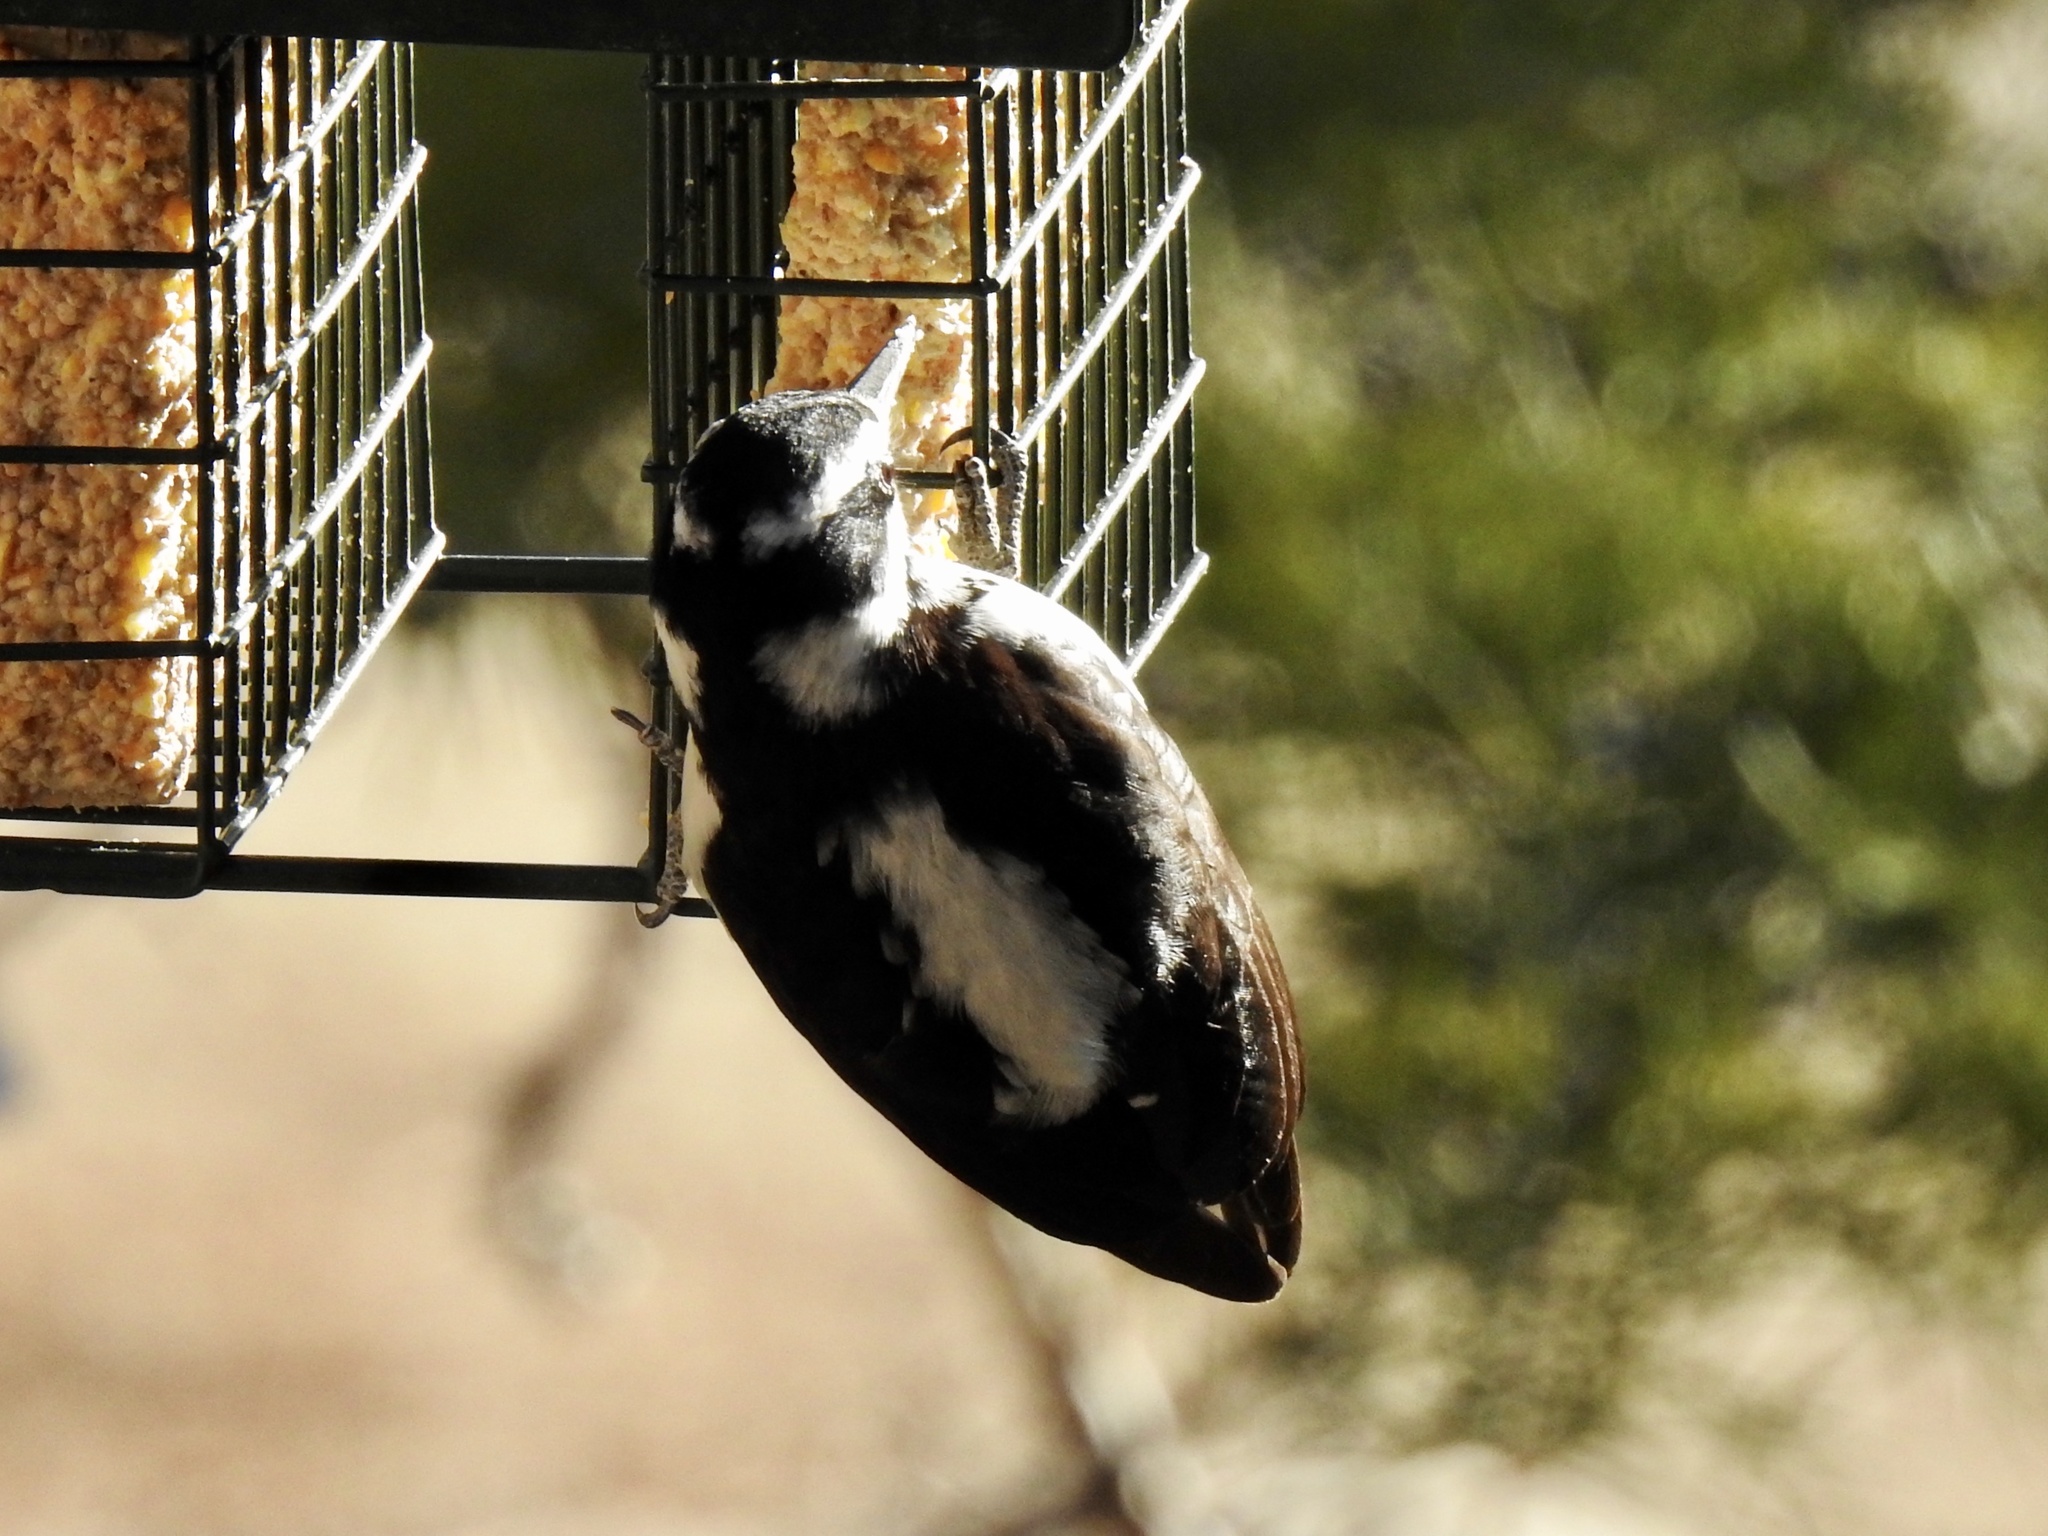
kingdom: Animalia
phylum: Chordata
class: Aves
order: Piciformes
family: Picidae
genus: Leuconotopicus
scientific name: Leuconotopicus villosus
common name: Hairy woodpecker
